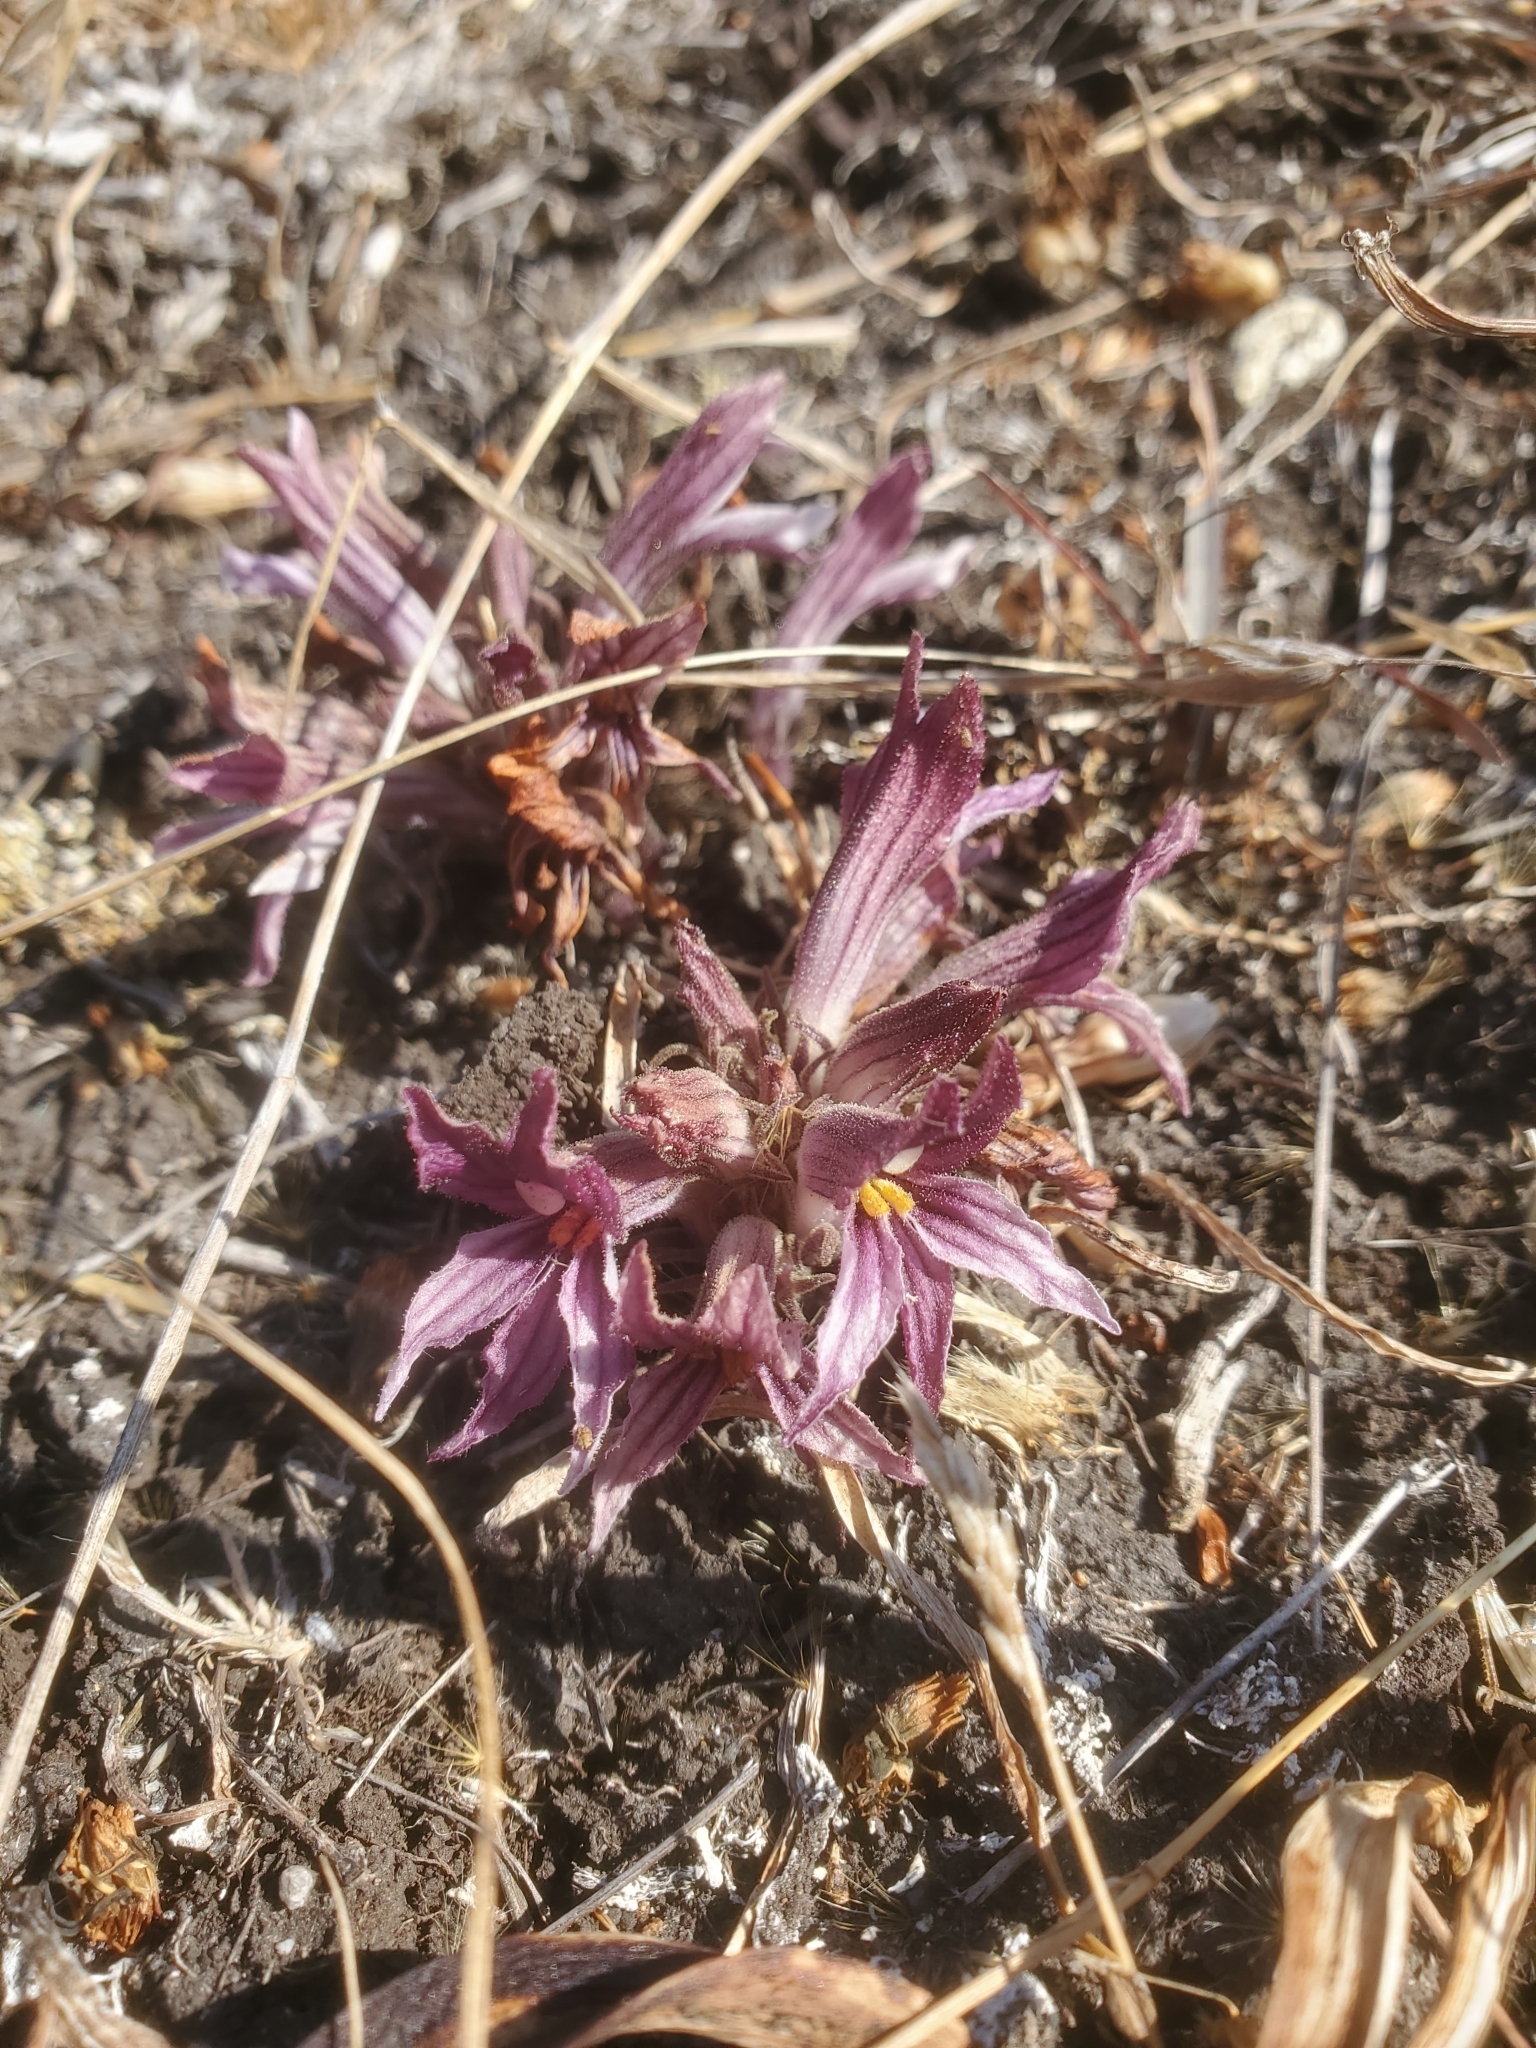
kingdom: Plantae
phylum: Tracheophyta
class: Magnoliopsida
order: Lamiales
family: Orobanchaceae
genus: Aphyllon
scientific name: Aphyllon californicum
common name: California broomrape
